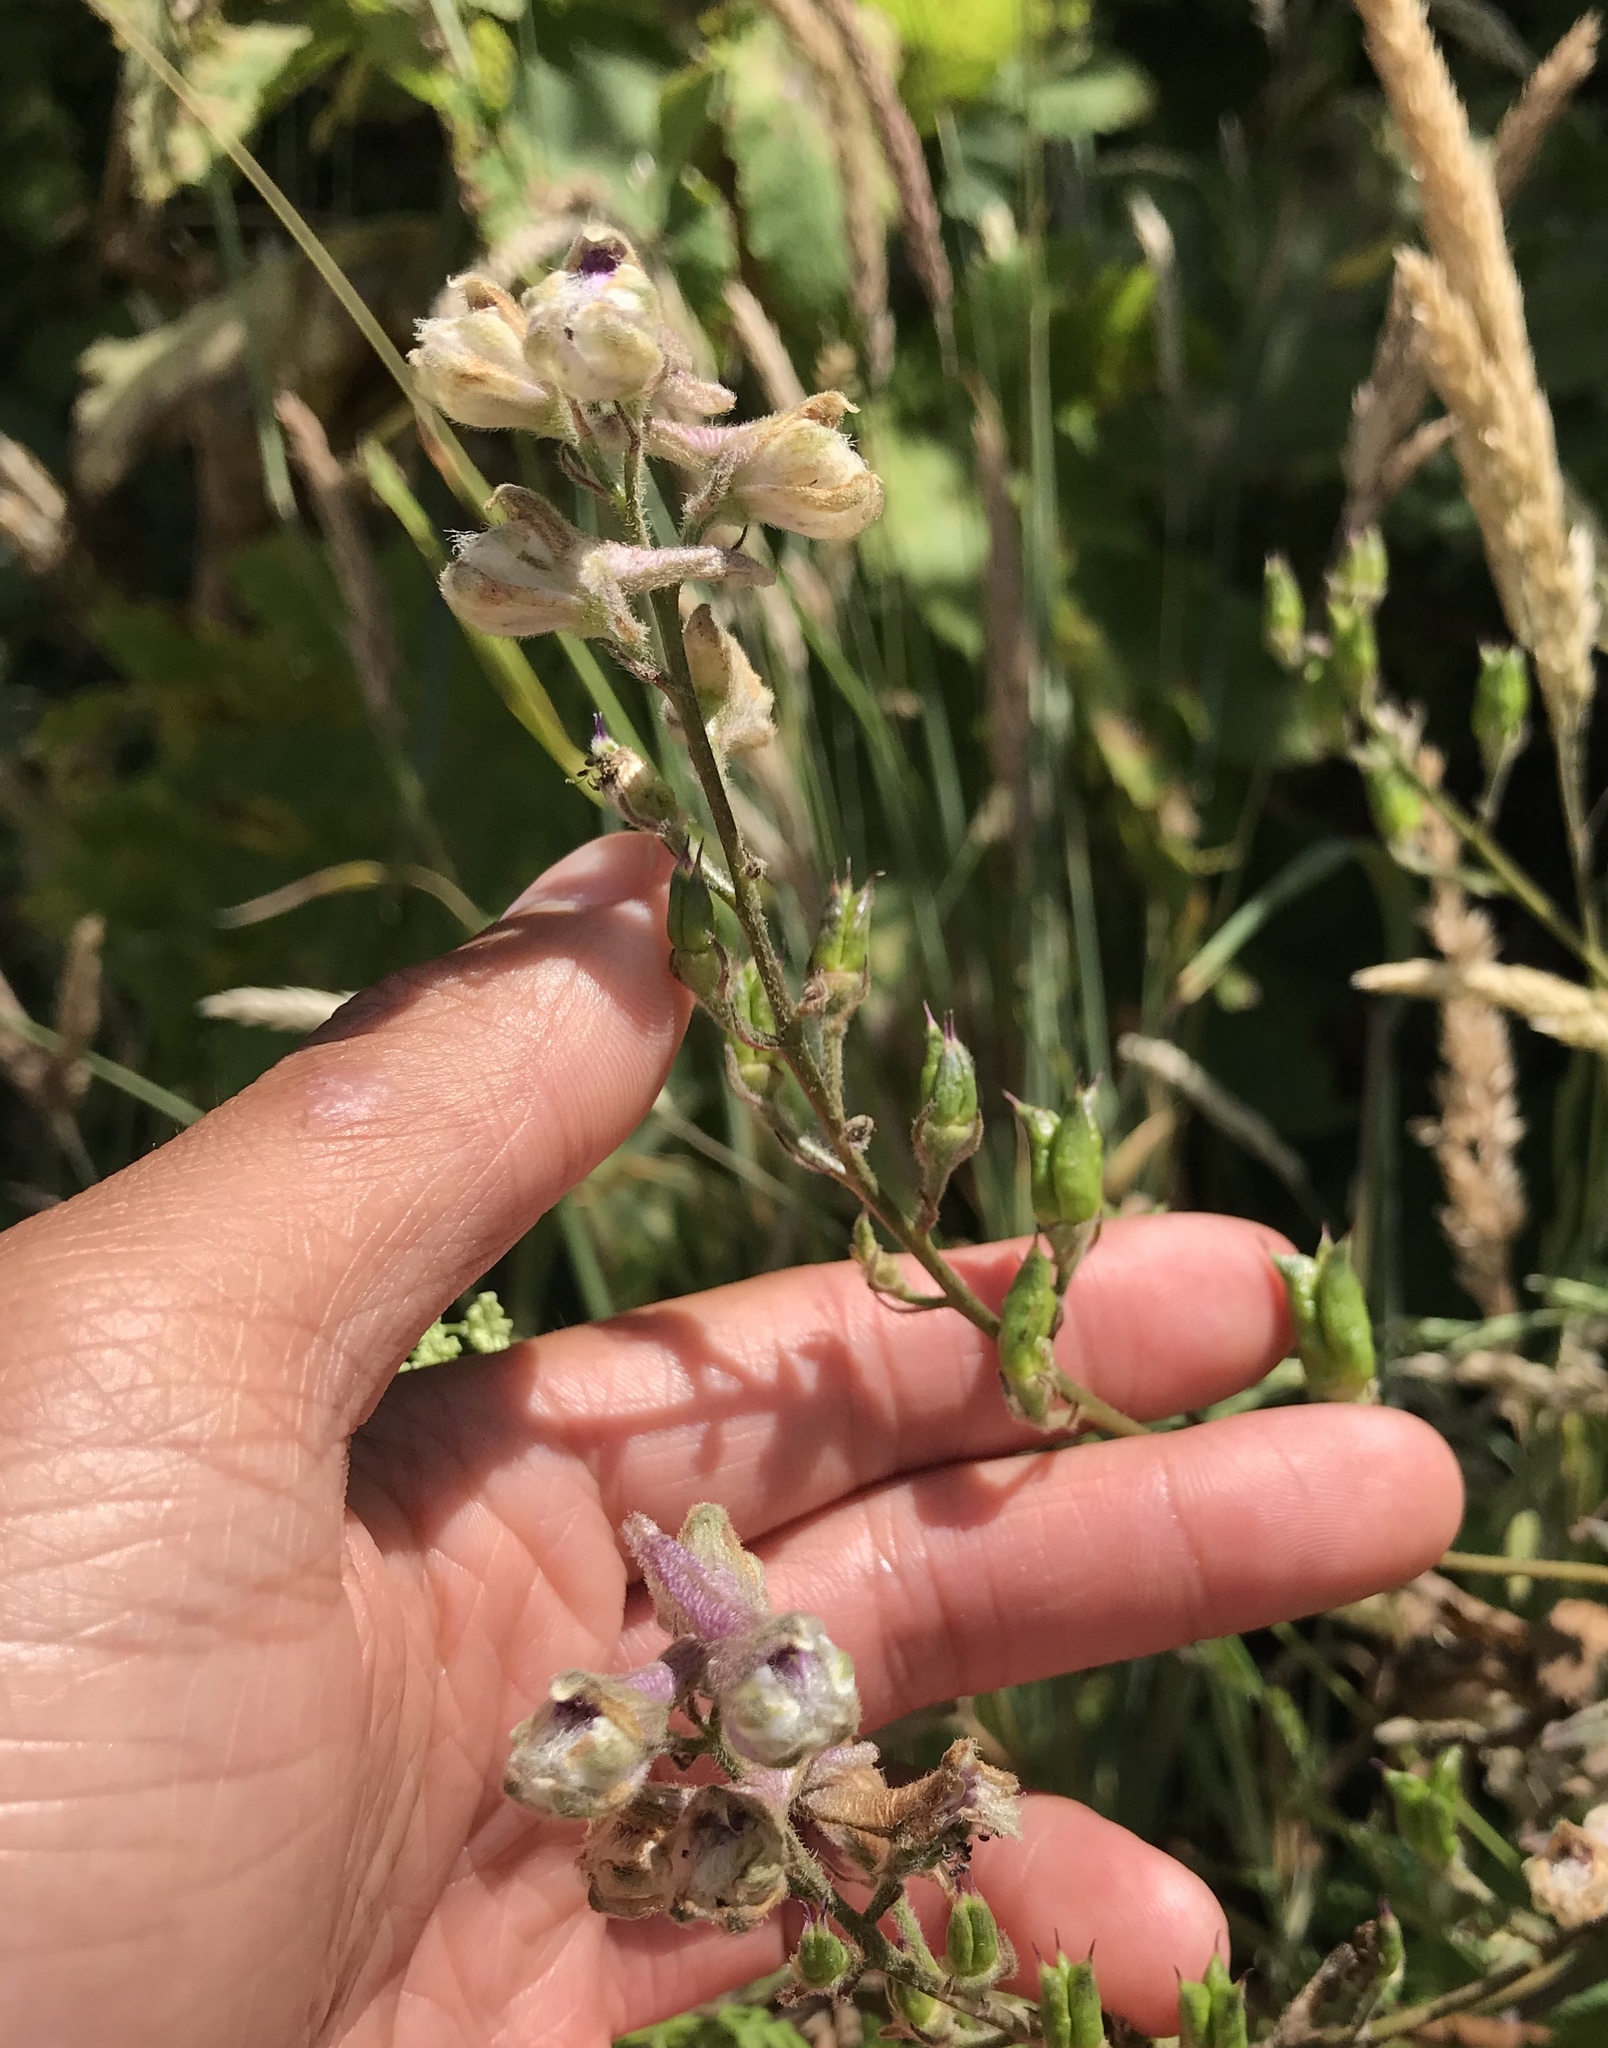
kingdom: Plantae
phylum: Tracheophyta
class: Magnoliopsida
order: Ranunculales
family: Ranunculaceae
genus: Delphinium
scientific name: Delphinium californicum
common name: California larkspur
